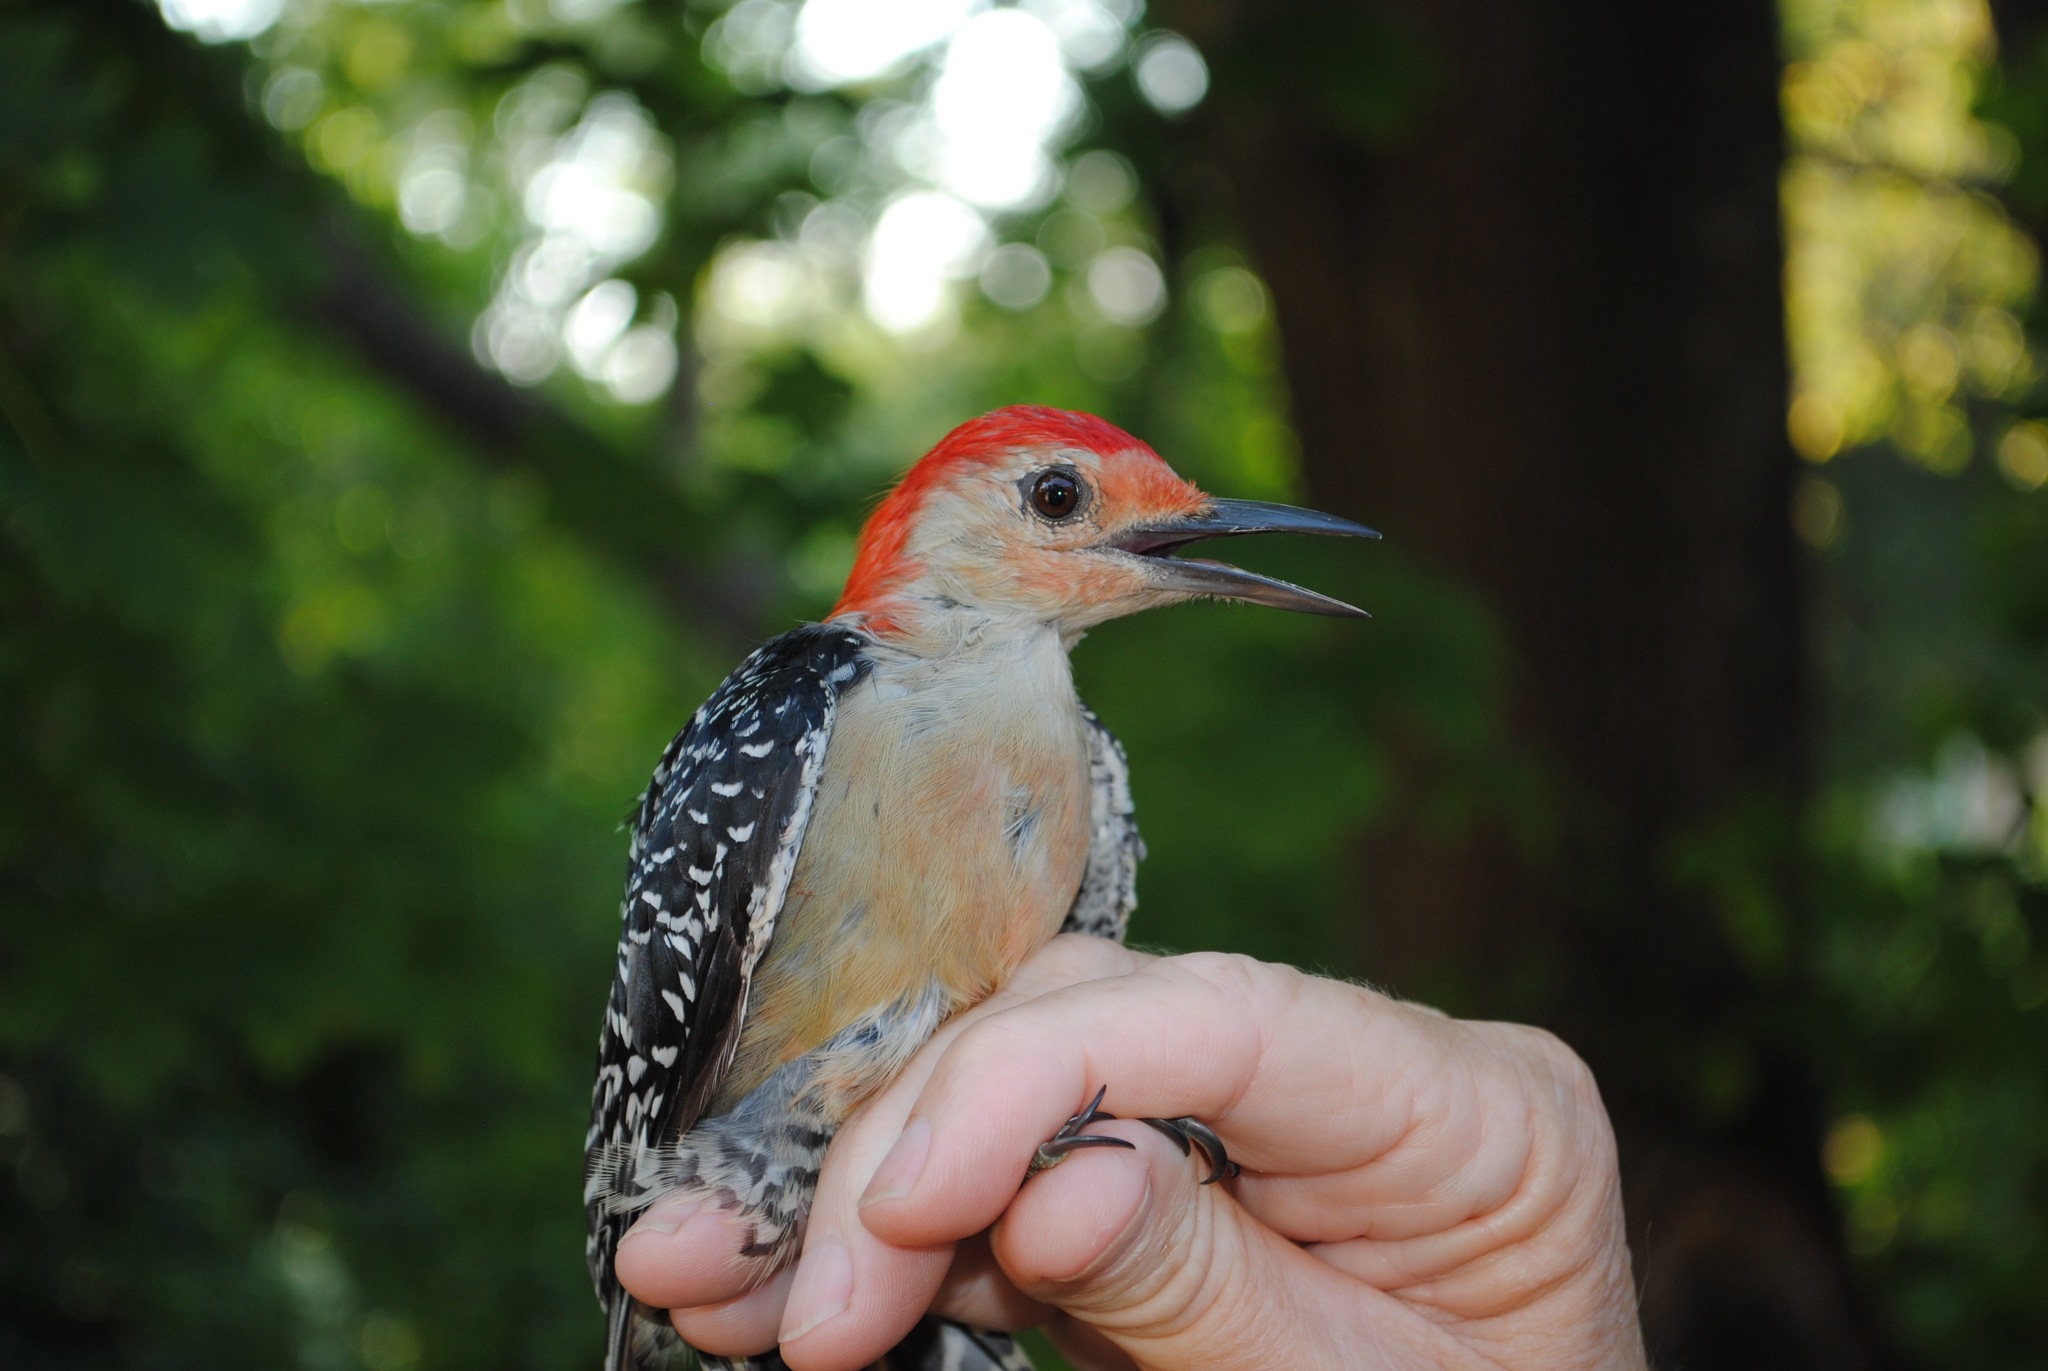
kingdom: Animalia
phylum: Chordata
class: Aves
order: Piciformes
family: Picidae
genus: Melanerpes
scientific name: Melanerpes carolinus
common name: Red-bellied woodpecker
